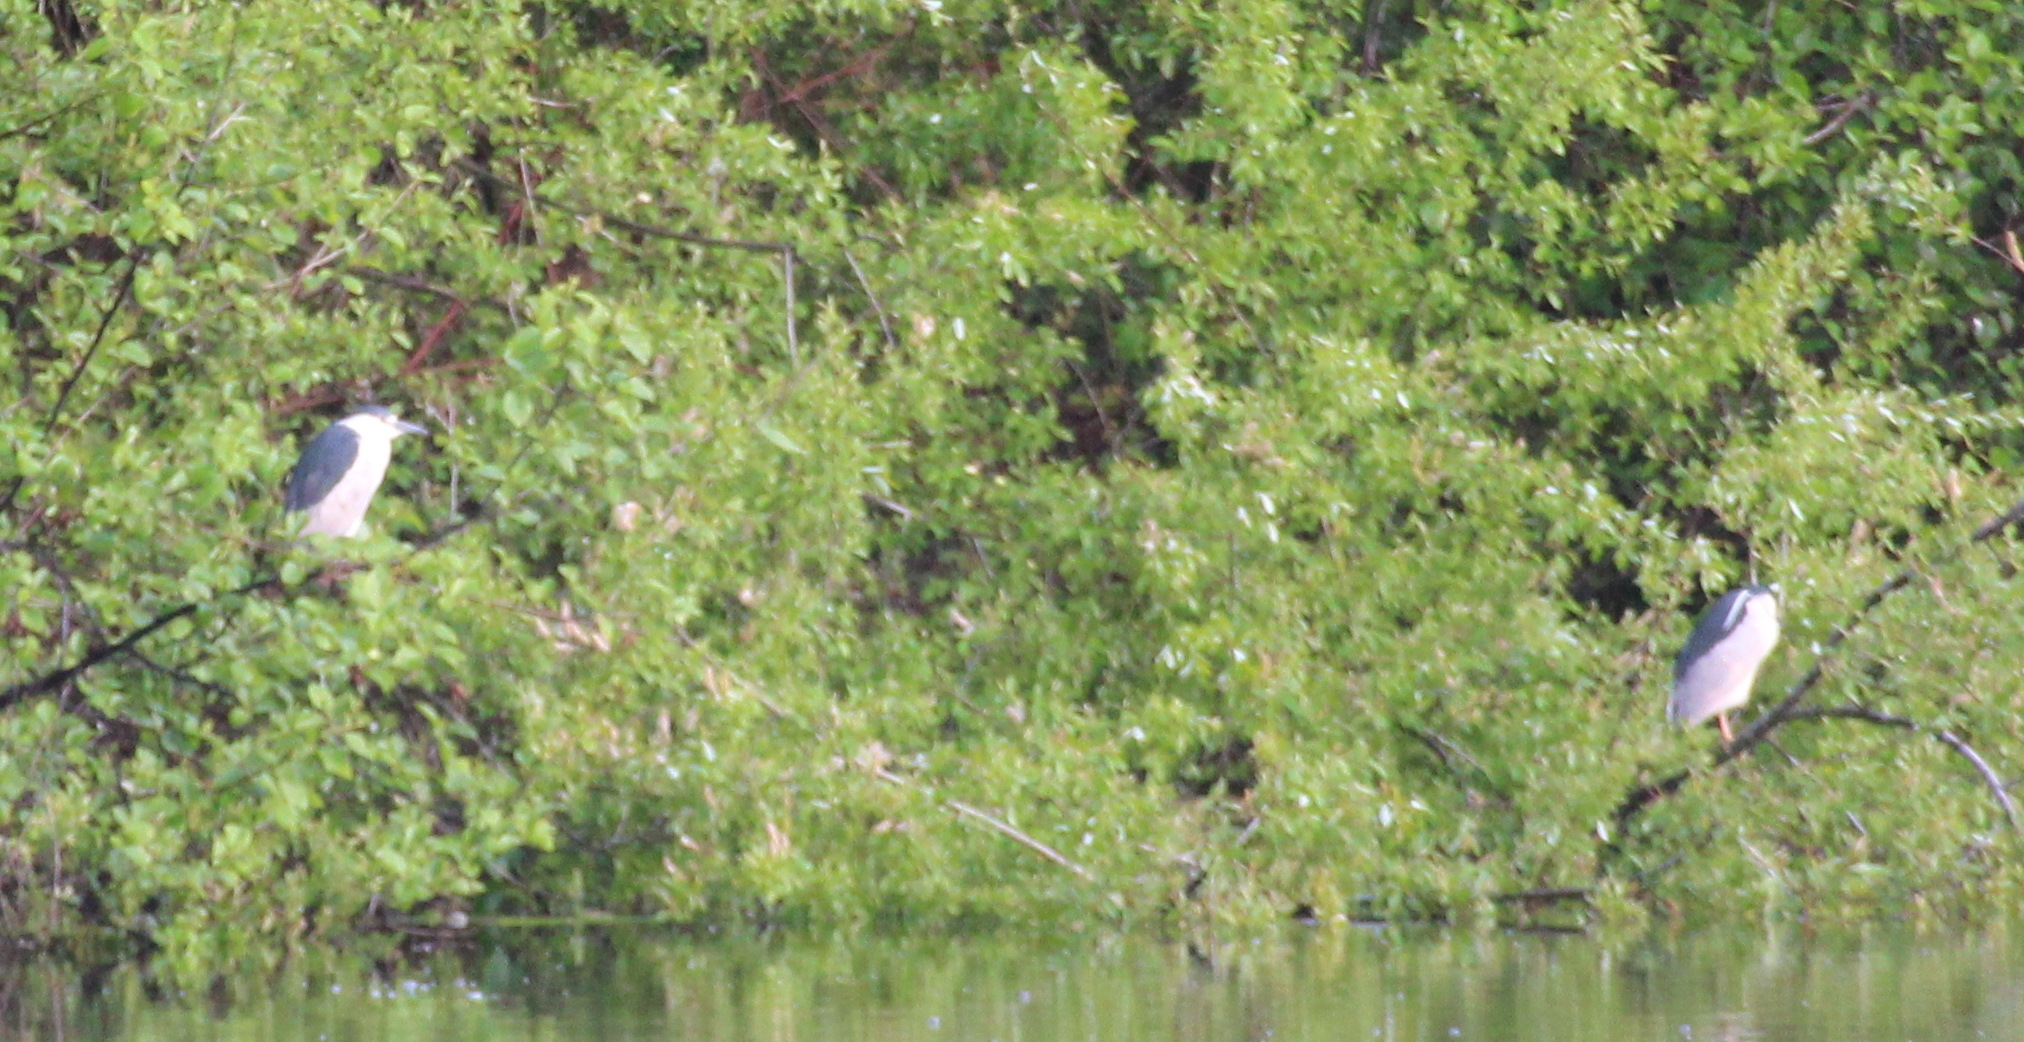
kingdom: Animalia
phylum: Chordata
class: Aves
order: Pelecaniformes
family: Ardeidae
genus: Nycticorax
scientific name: Nycticorax nycticorax
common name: Black-crowned night heron
